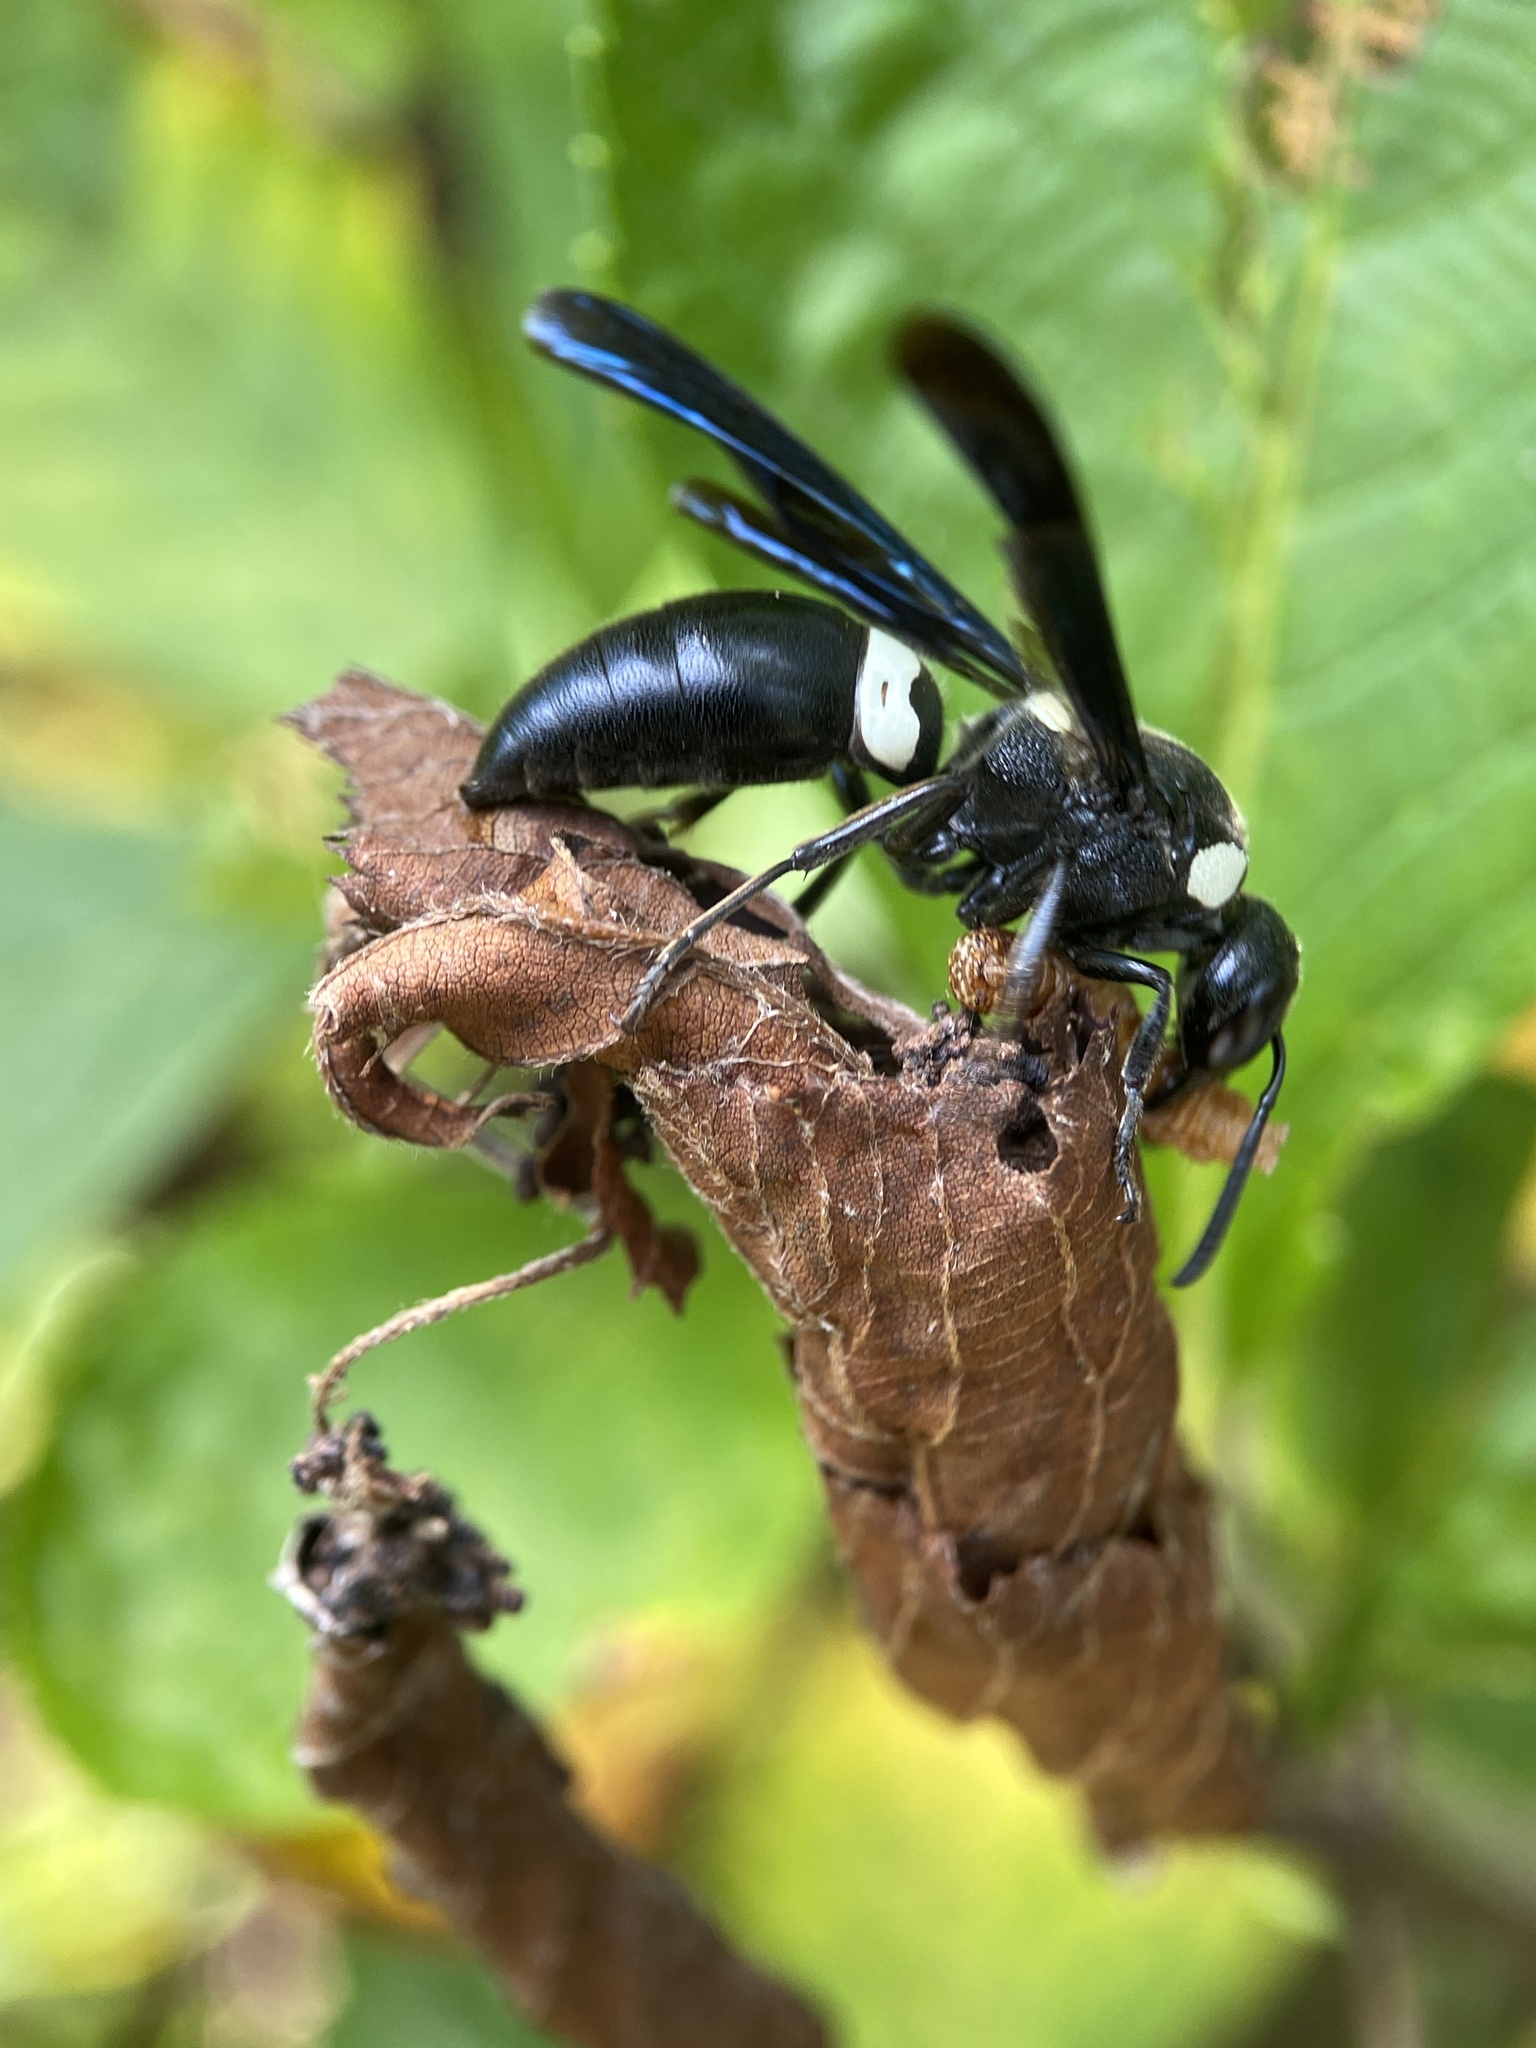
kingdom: Animalia
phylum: Arthropoda
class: Insecta
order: Hymenoptera
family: Eumenidae
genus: Monobia
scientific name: Monobia quadridens
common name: Four-toothed mason wasp
